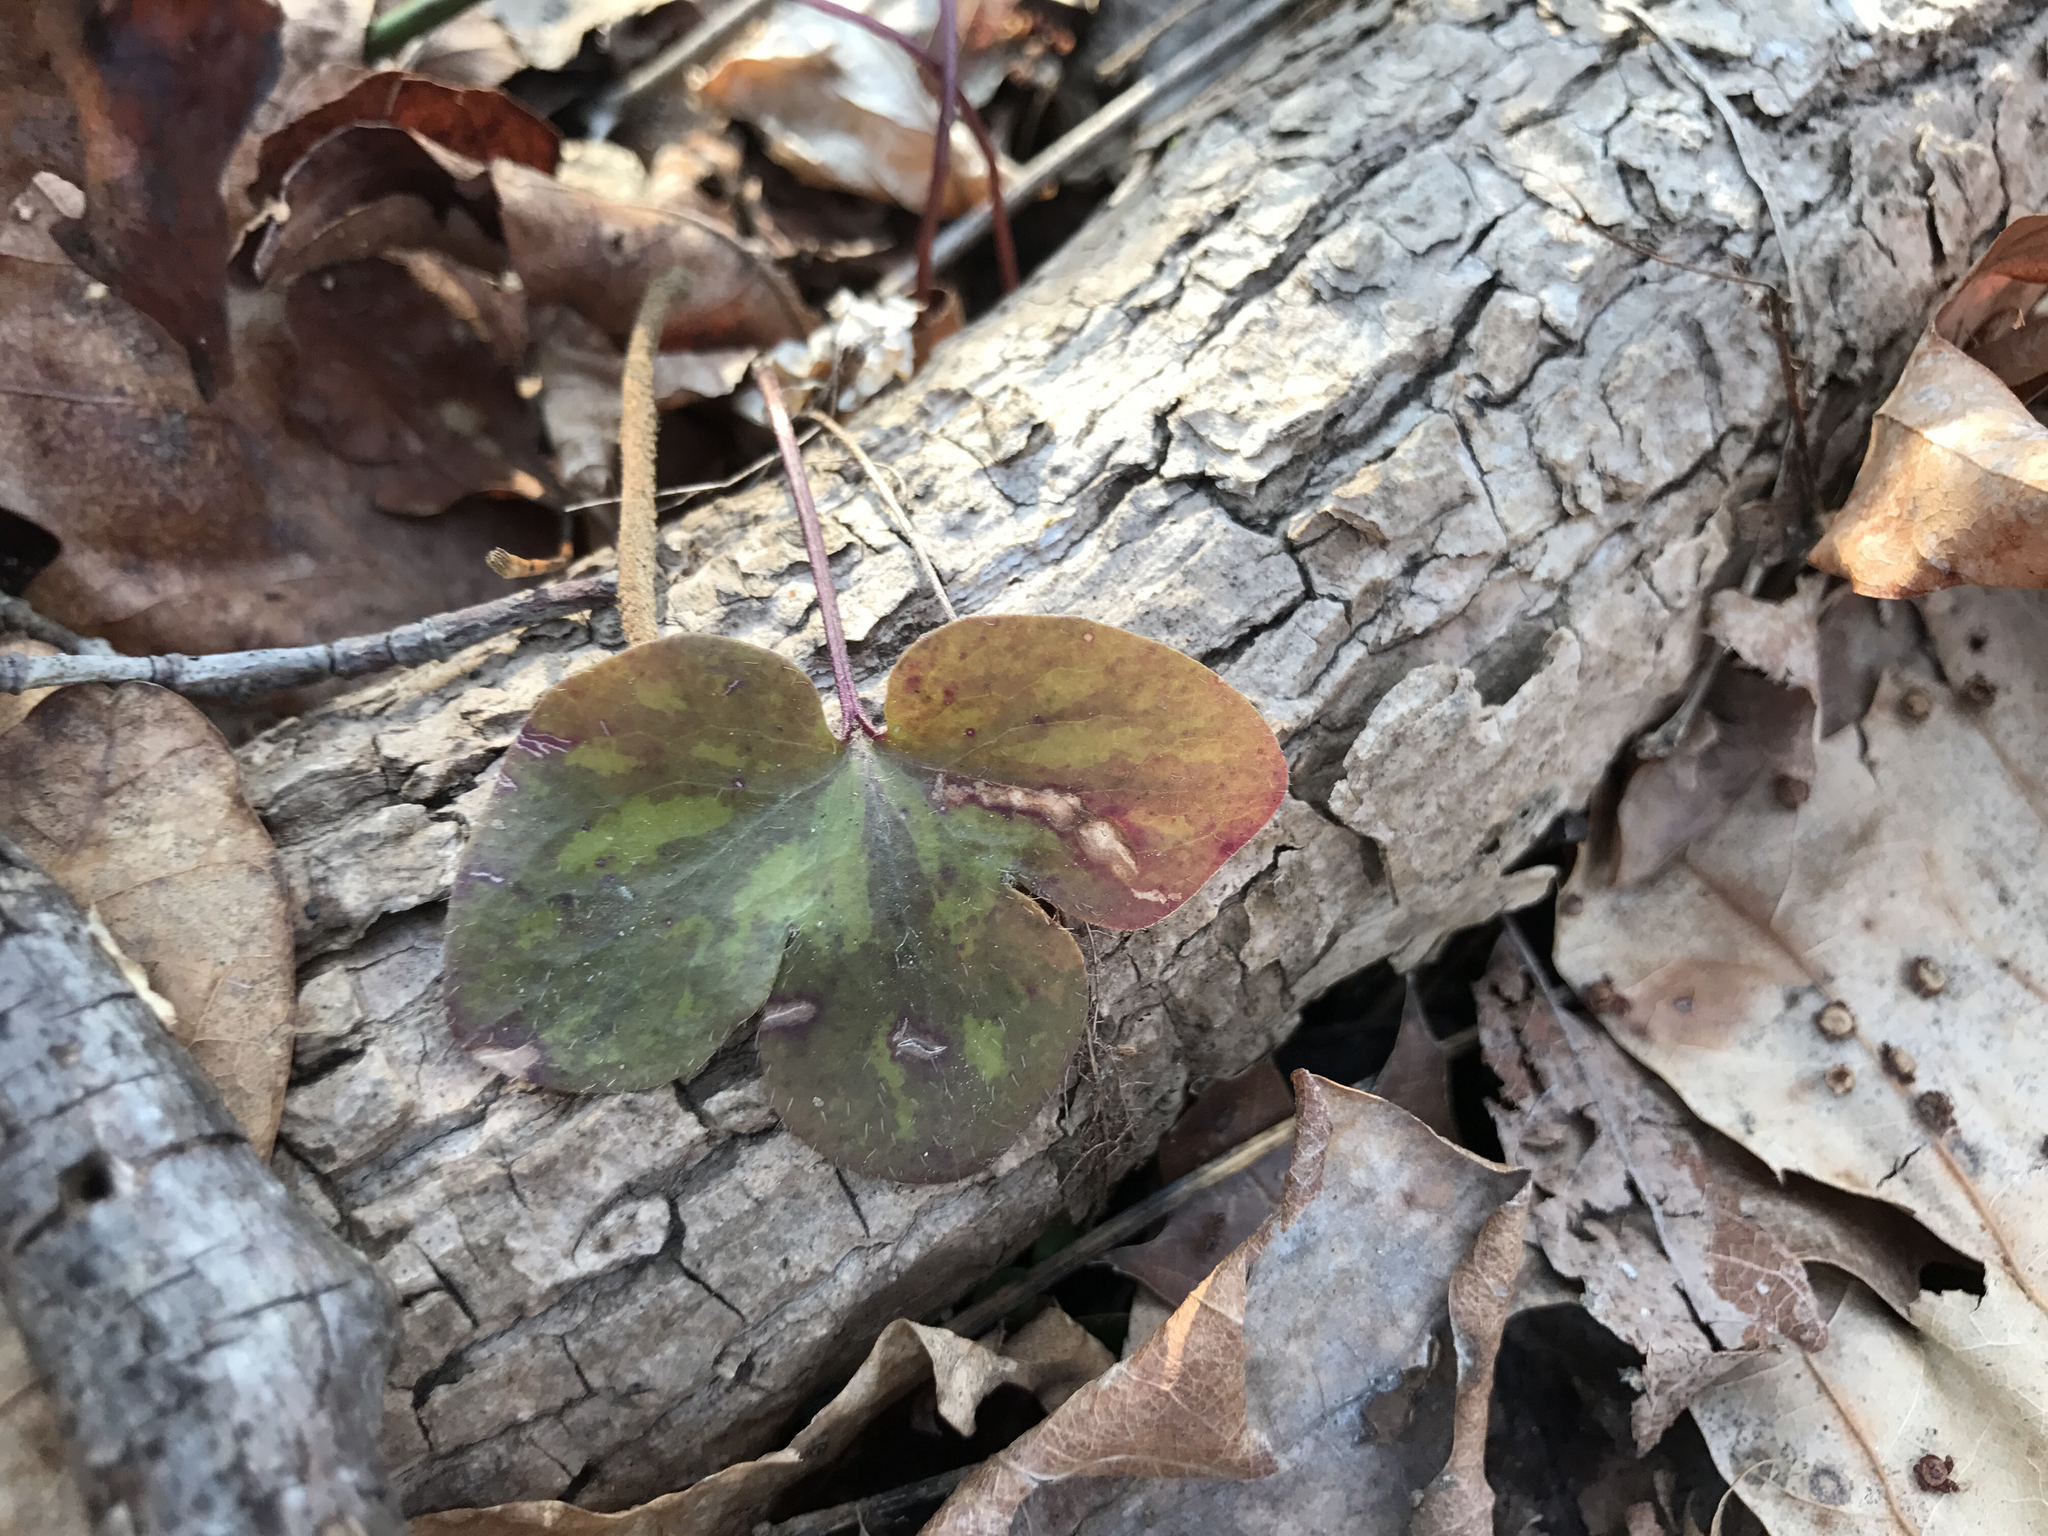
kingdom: Plantae
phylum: Tracheophyta
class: Magnoliopsida
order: Ranunculales
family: Ranunculaceae
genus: Hepatica
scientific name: Hepatica americana
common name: American hepatica
